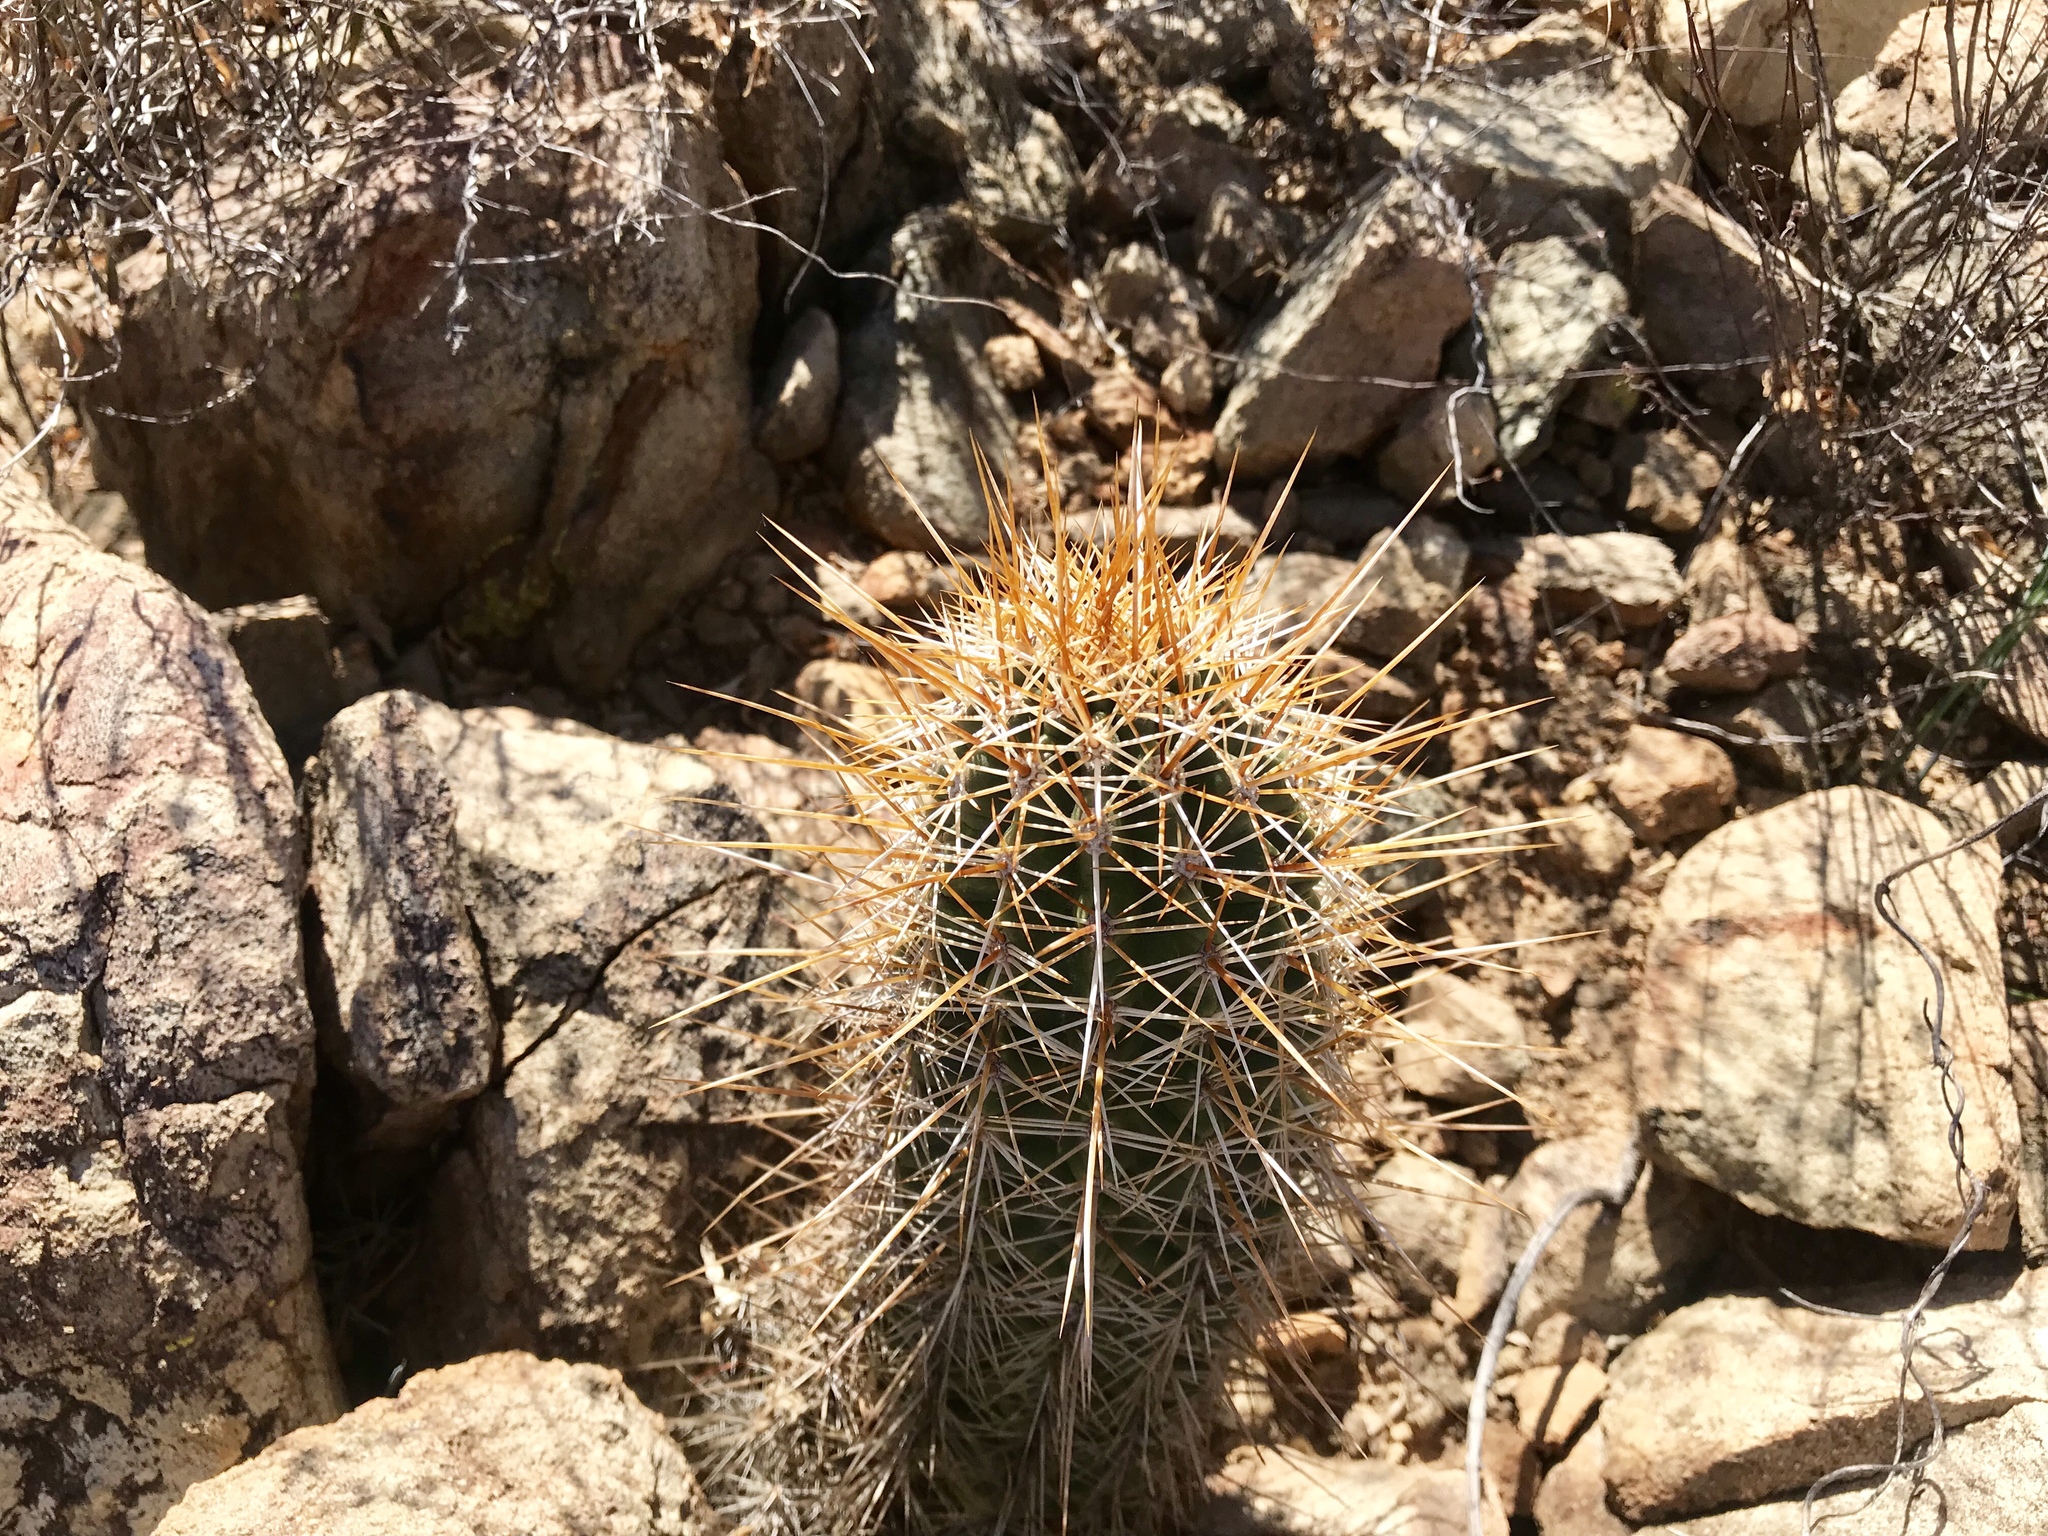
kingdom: Plantae
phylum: Tracheophyta
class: Magnoliopsida
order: Caryophyllales
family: Cactaceae
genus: Echinocereus
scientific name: Echinocereus engelmannii
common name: Engelmann's hedgehog cactus
